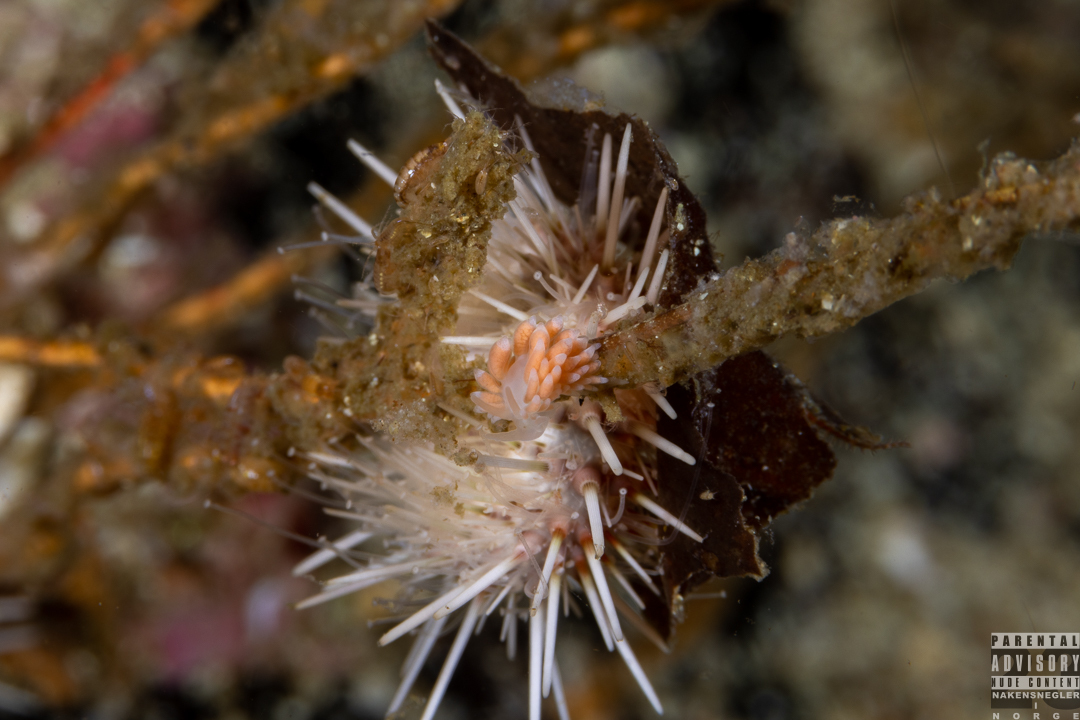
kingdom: Animalia
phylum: Mollusca
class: Gastropoda
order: Nudibranchia
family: Trinchesiidae
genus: Catriona
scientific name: Catriona aurantia
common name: Corange-tip cuthona
